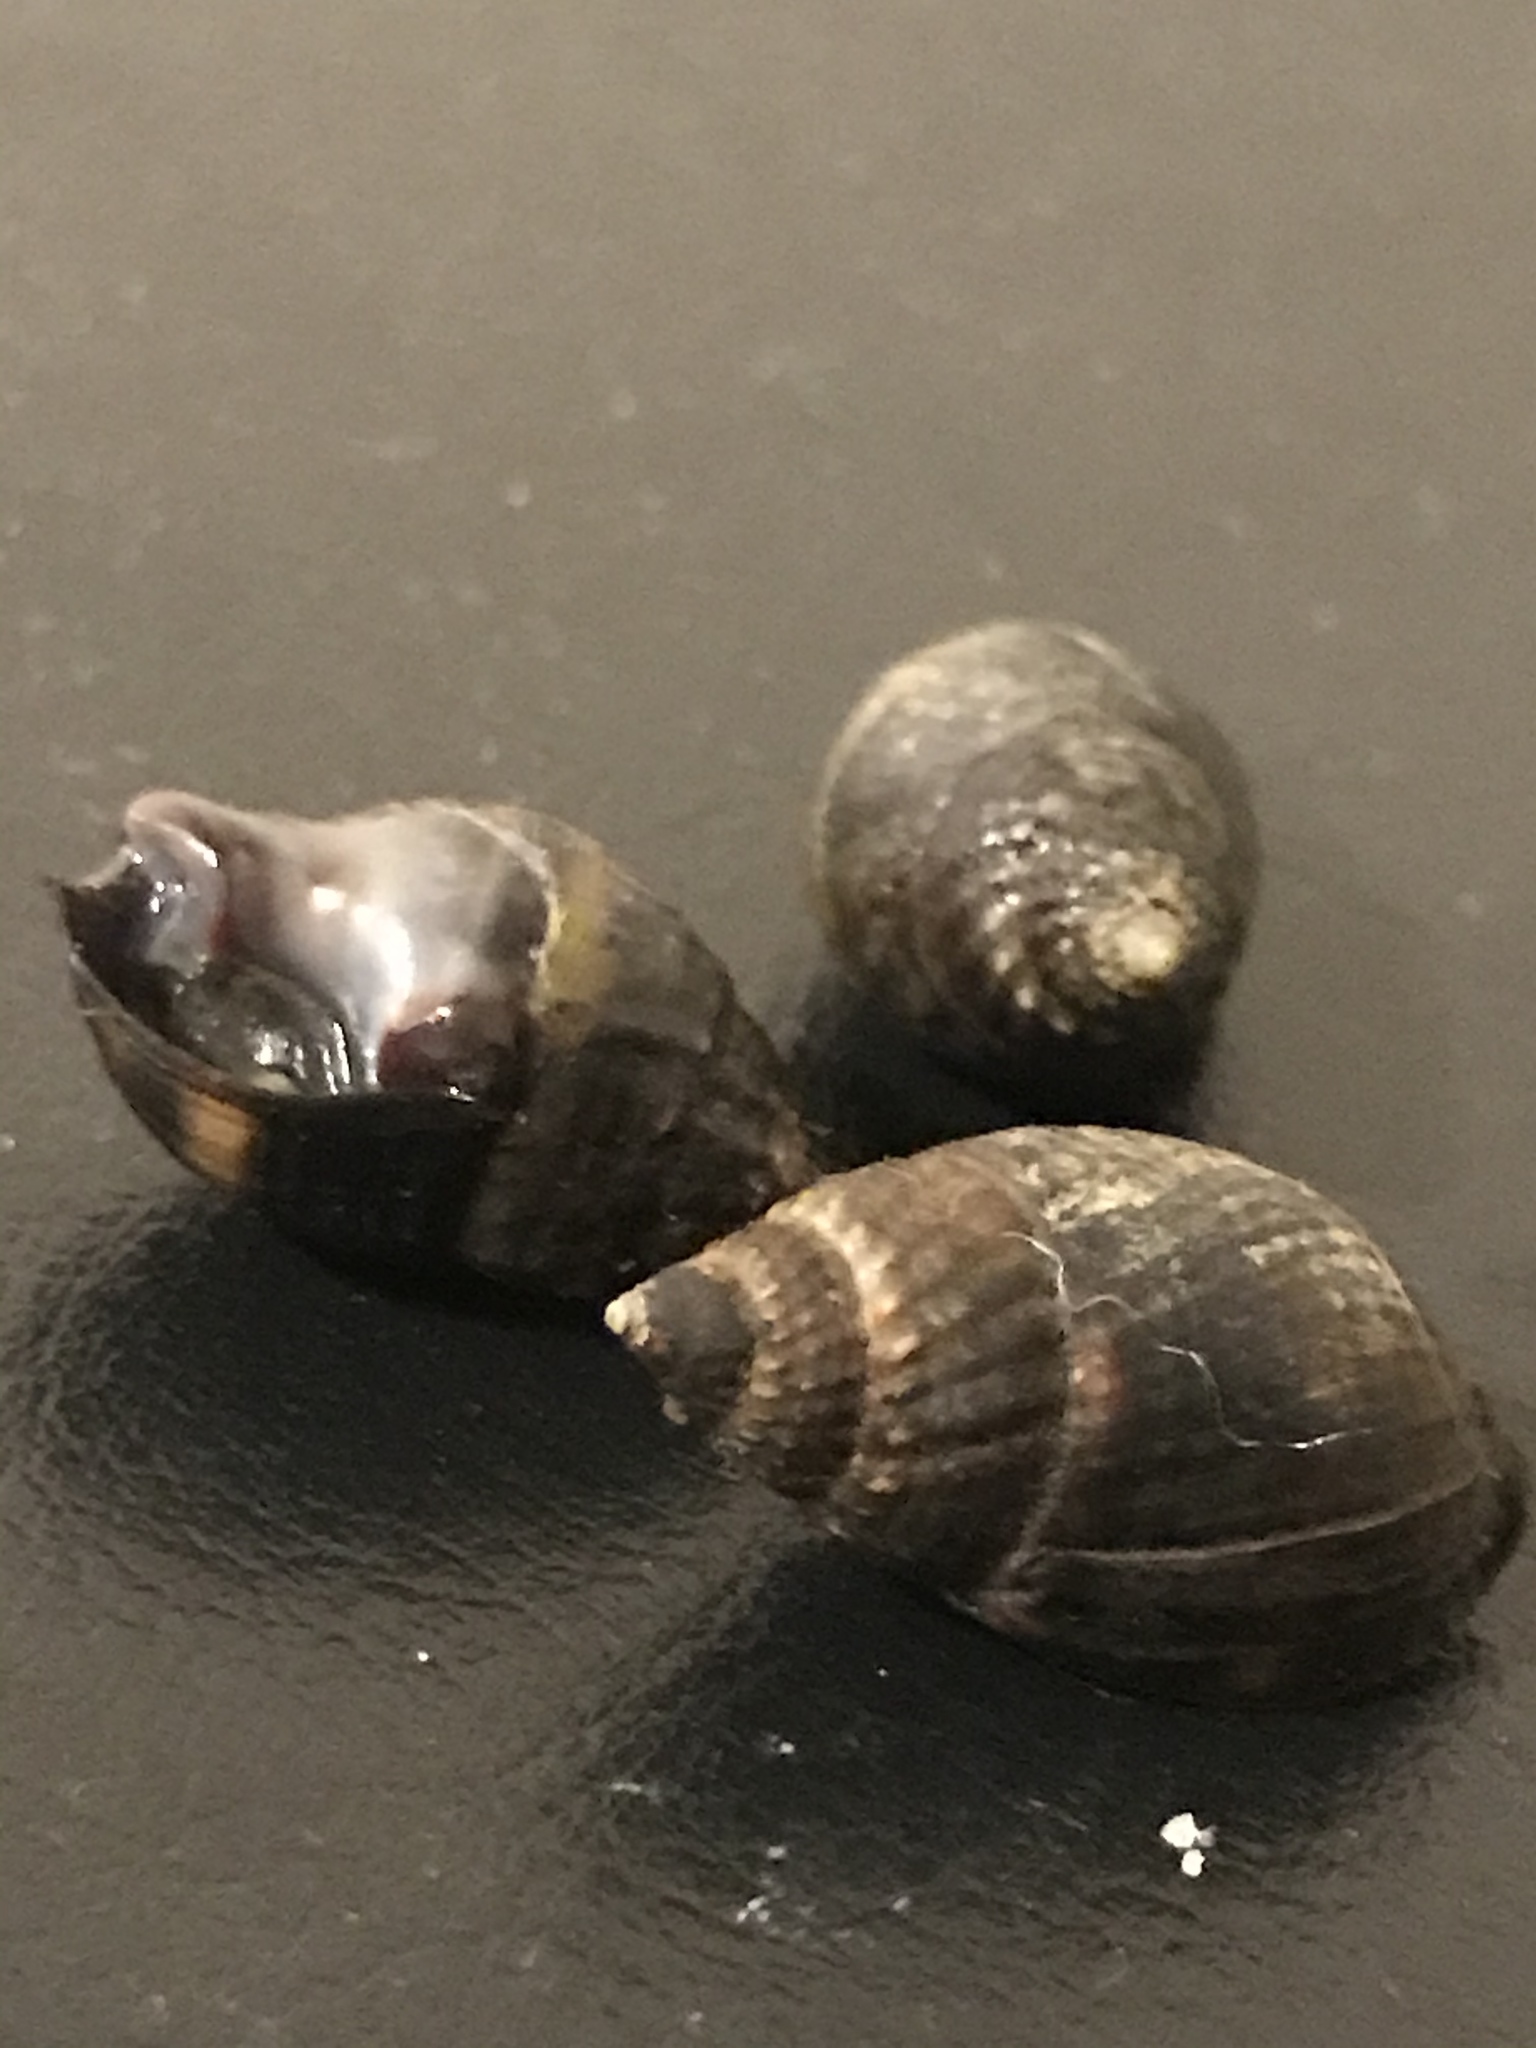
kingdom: Animalia
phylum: Mollusca
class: Gastropoda
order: Neogastropoda
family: Nassariidae
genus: Ilyanassa
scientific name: Ilyanassa obsoleta
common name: Eastern mudsnail
